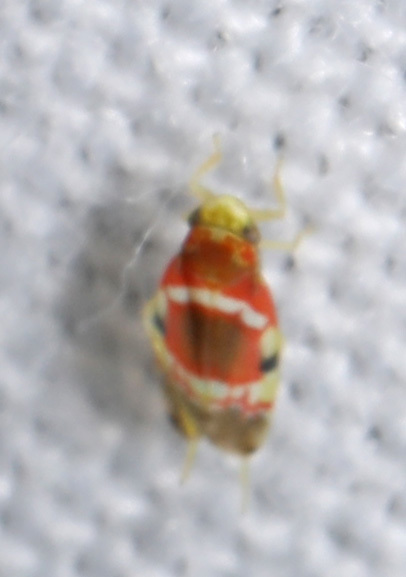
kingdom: Animalia
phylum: Arthropoda
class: Insecta
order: Hemiptera
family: Cicadellidae
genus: Erythroneura
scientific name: Erythroneura vitis
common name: Grapevine leafhopper
